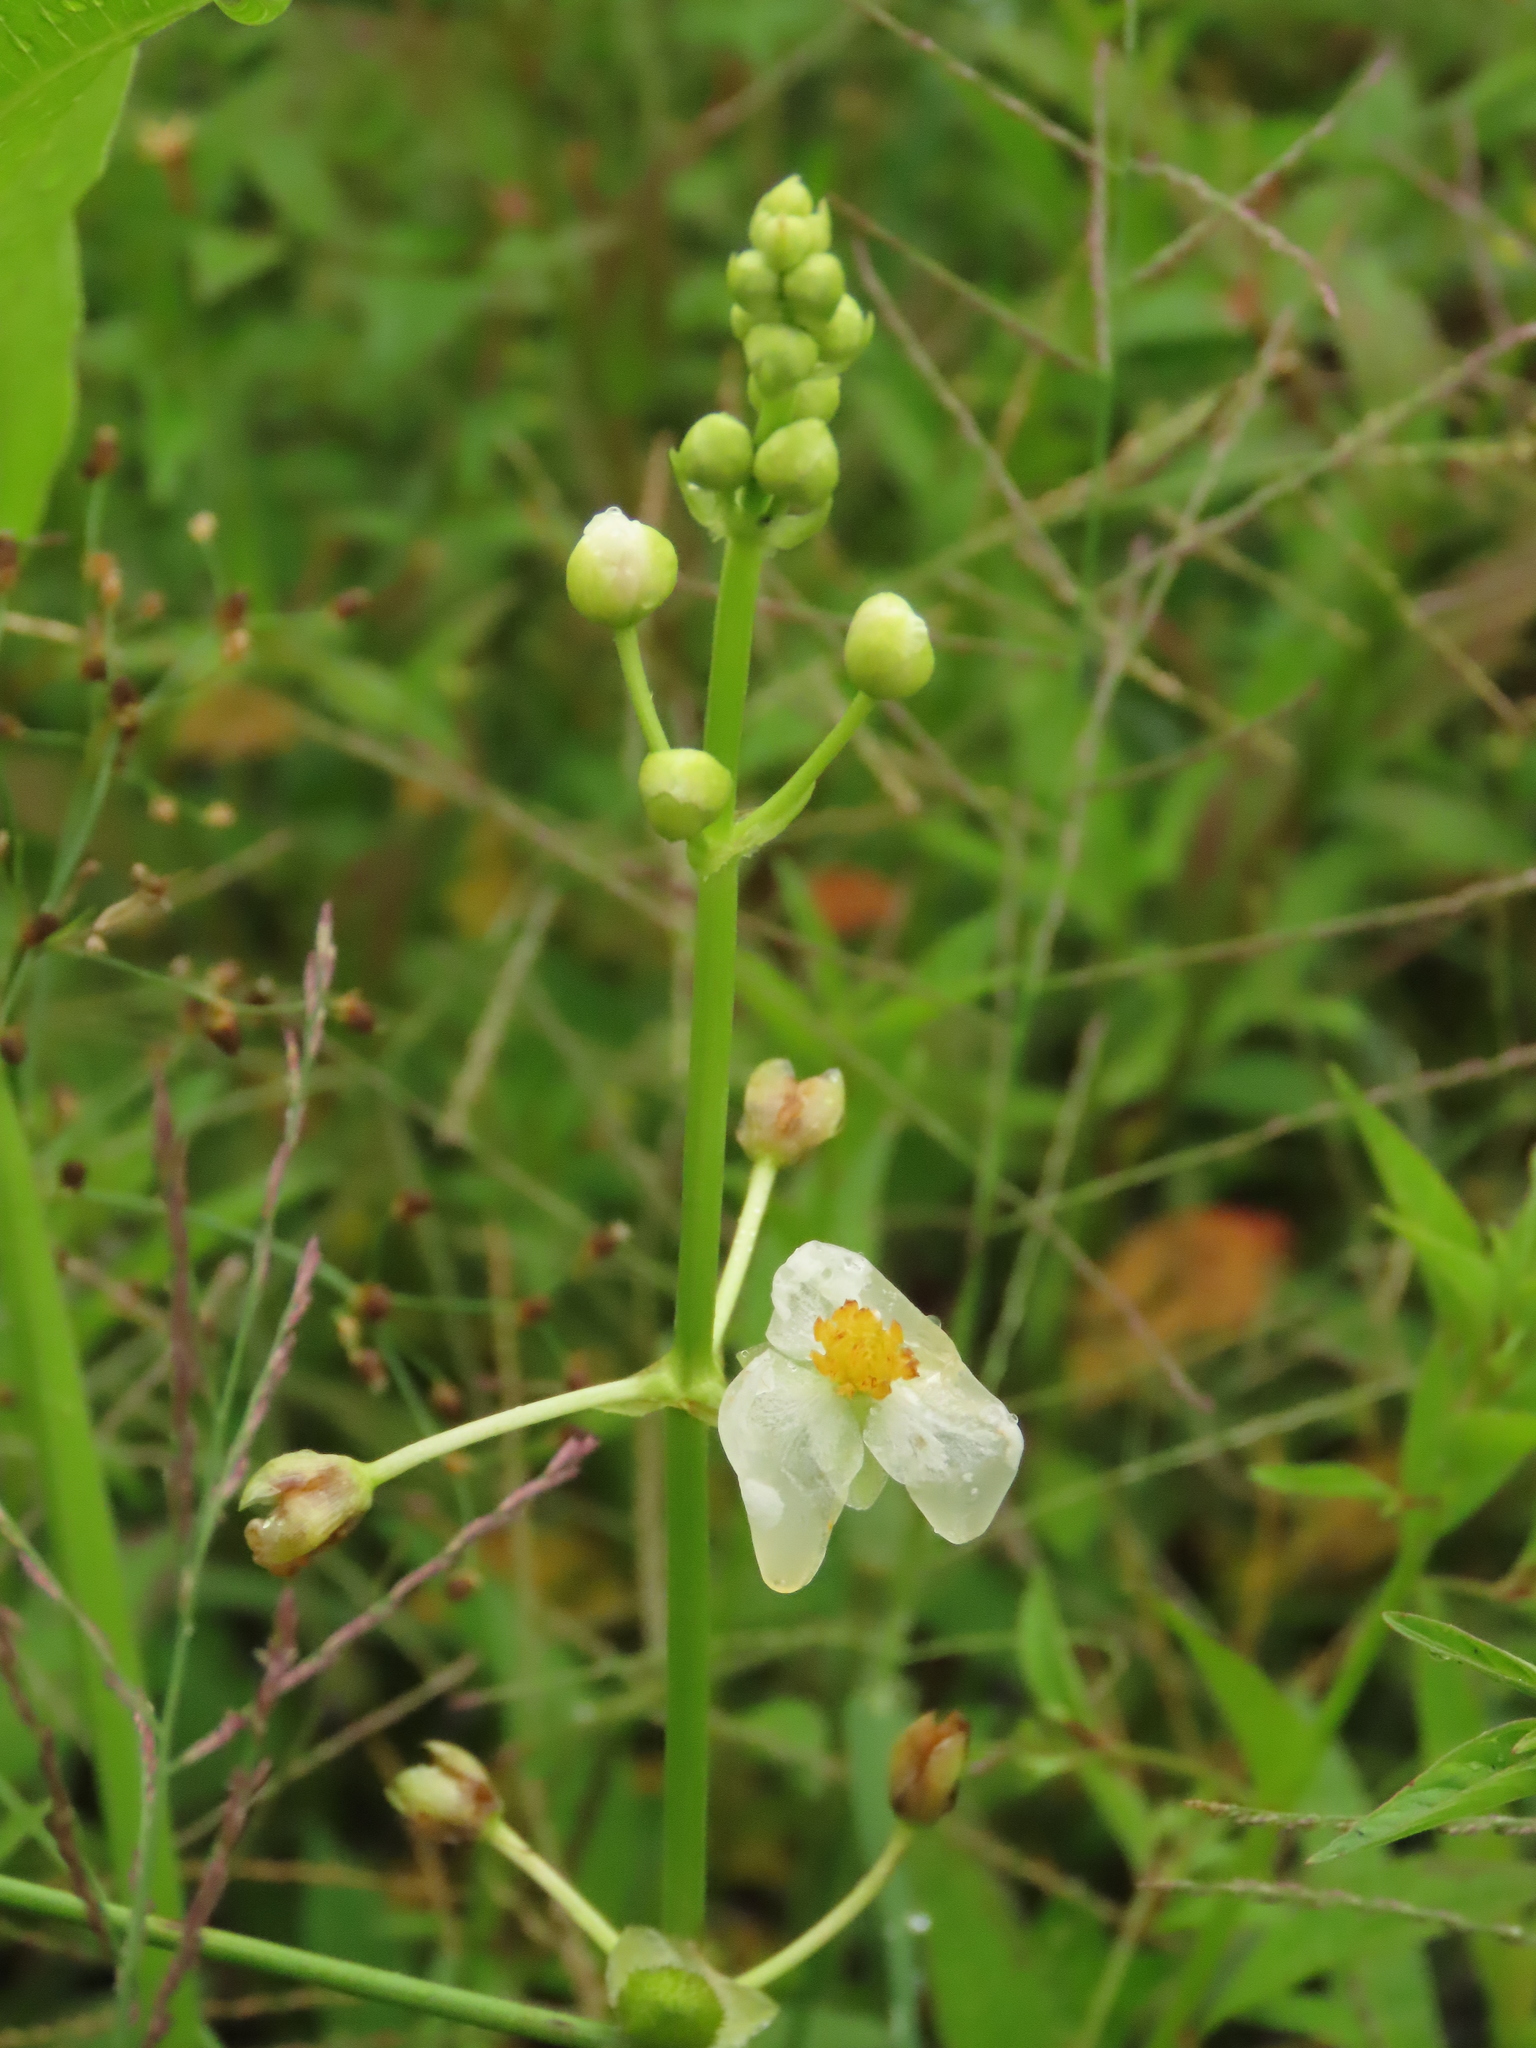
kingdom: Plantae
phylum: Tracheophyta
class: Liliopsida
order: Alismatales
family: Alismataceae
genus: Sagittaria
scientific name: Sagittaria trifolia
